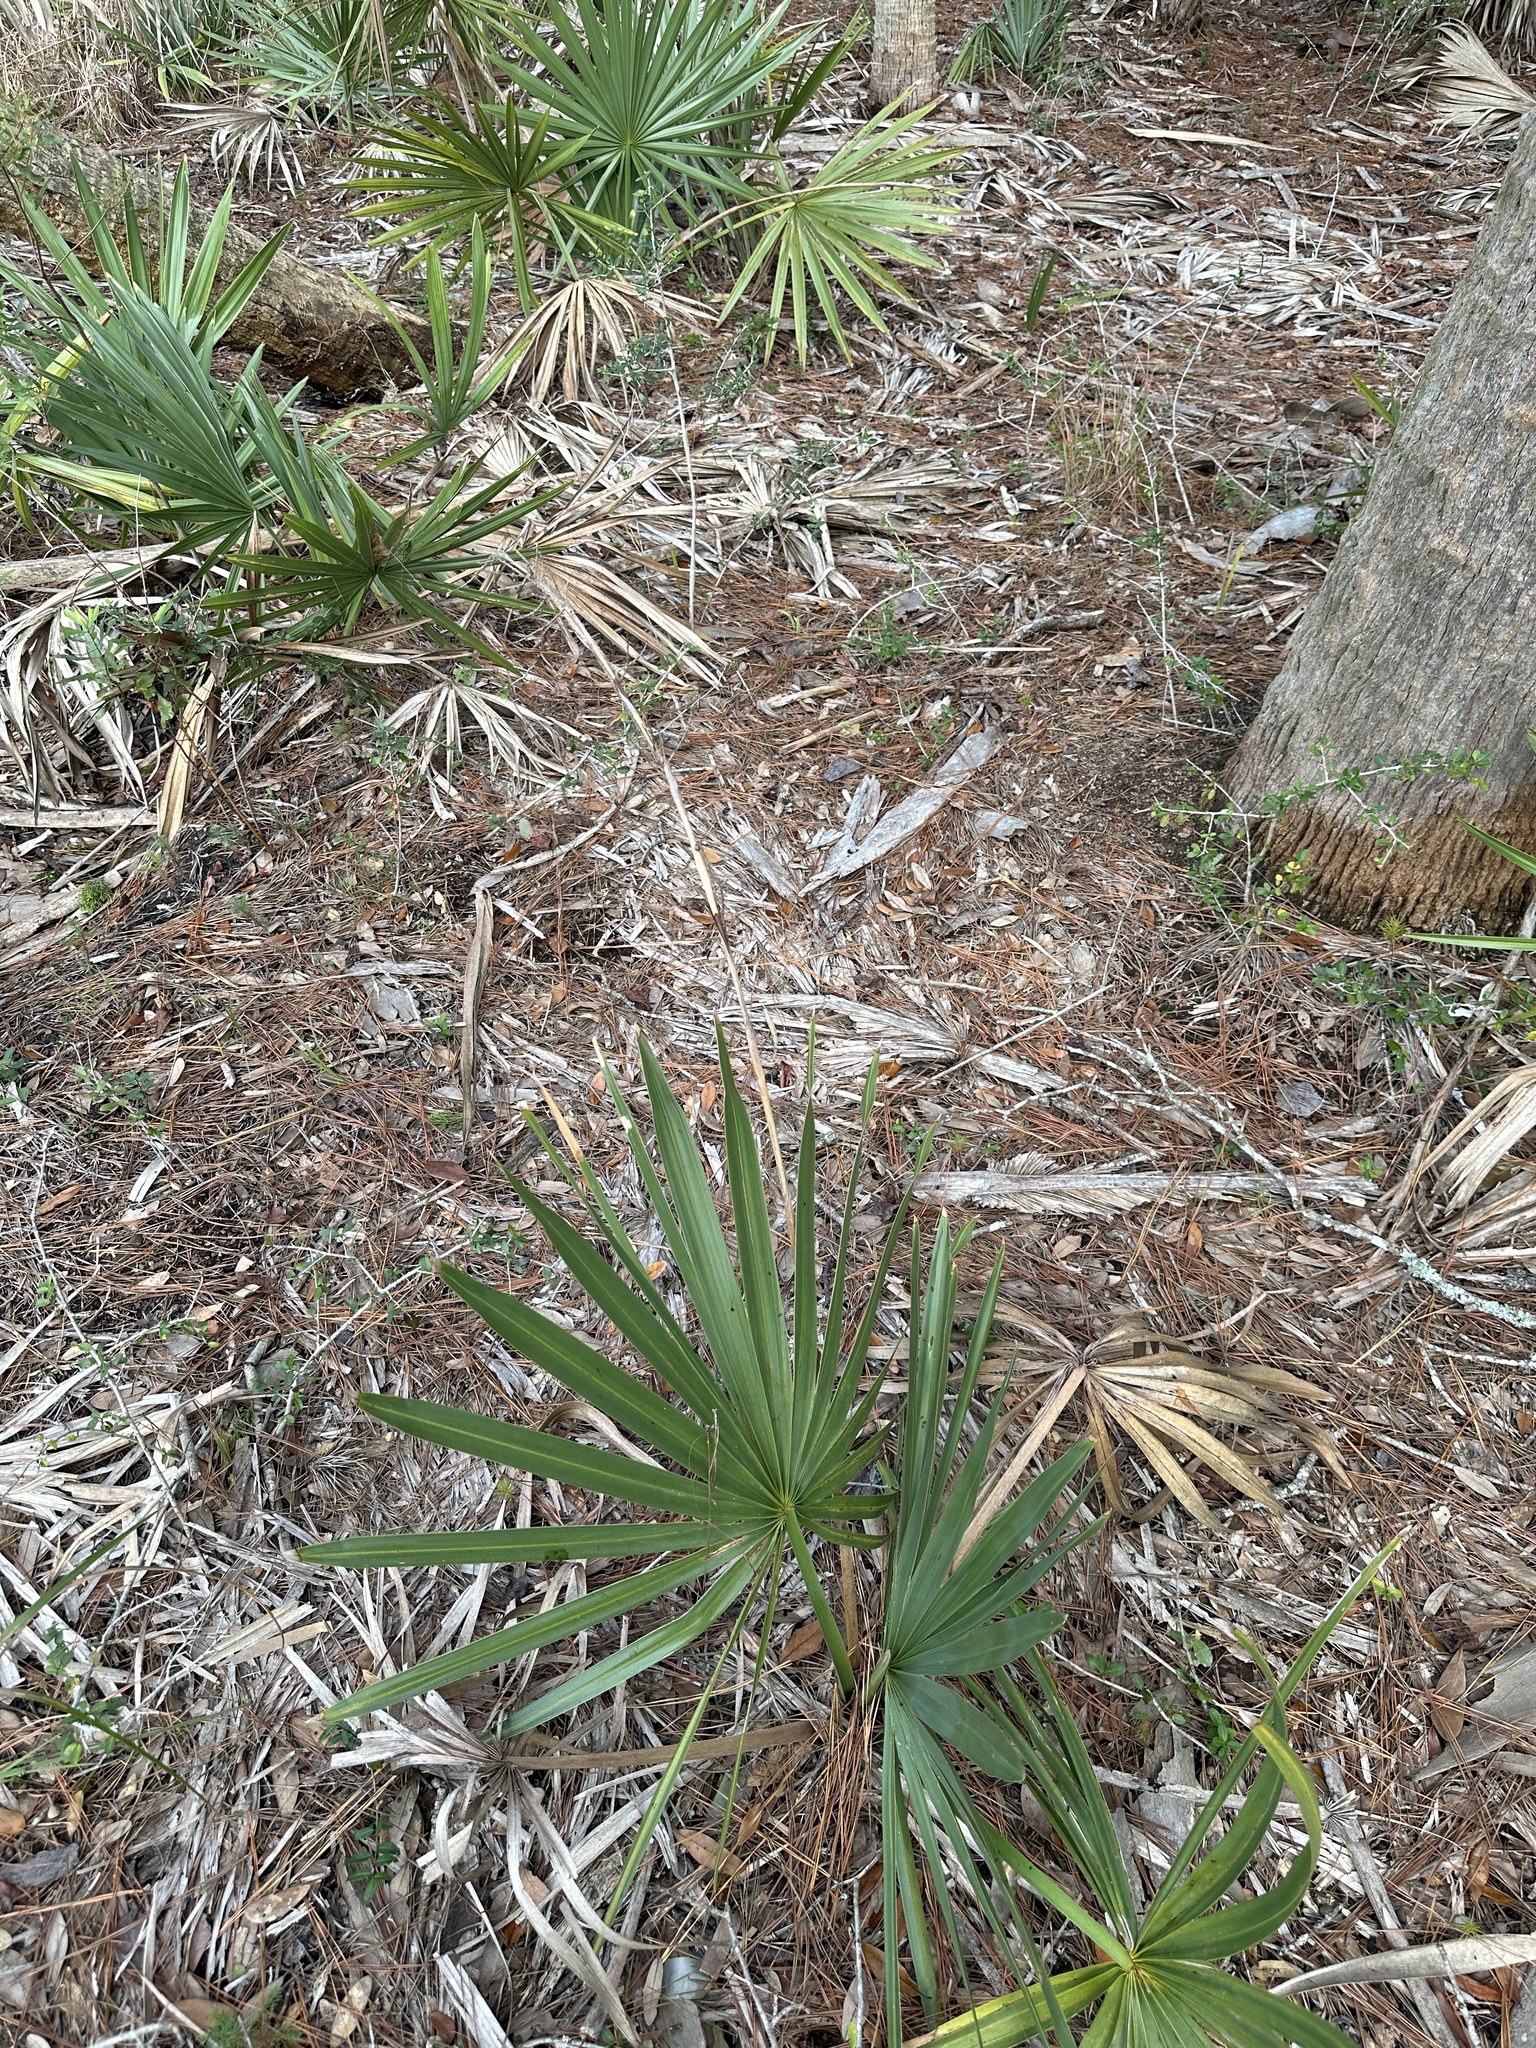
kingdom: Plantae
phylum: Tracheophyta
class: Liliopsida
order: Arecales
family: Arecaceae
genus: Serenoa
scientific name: Serenoa repens
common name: Saw-palmetto
